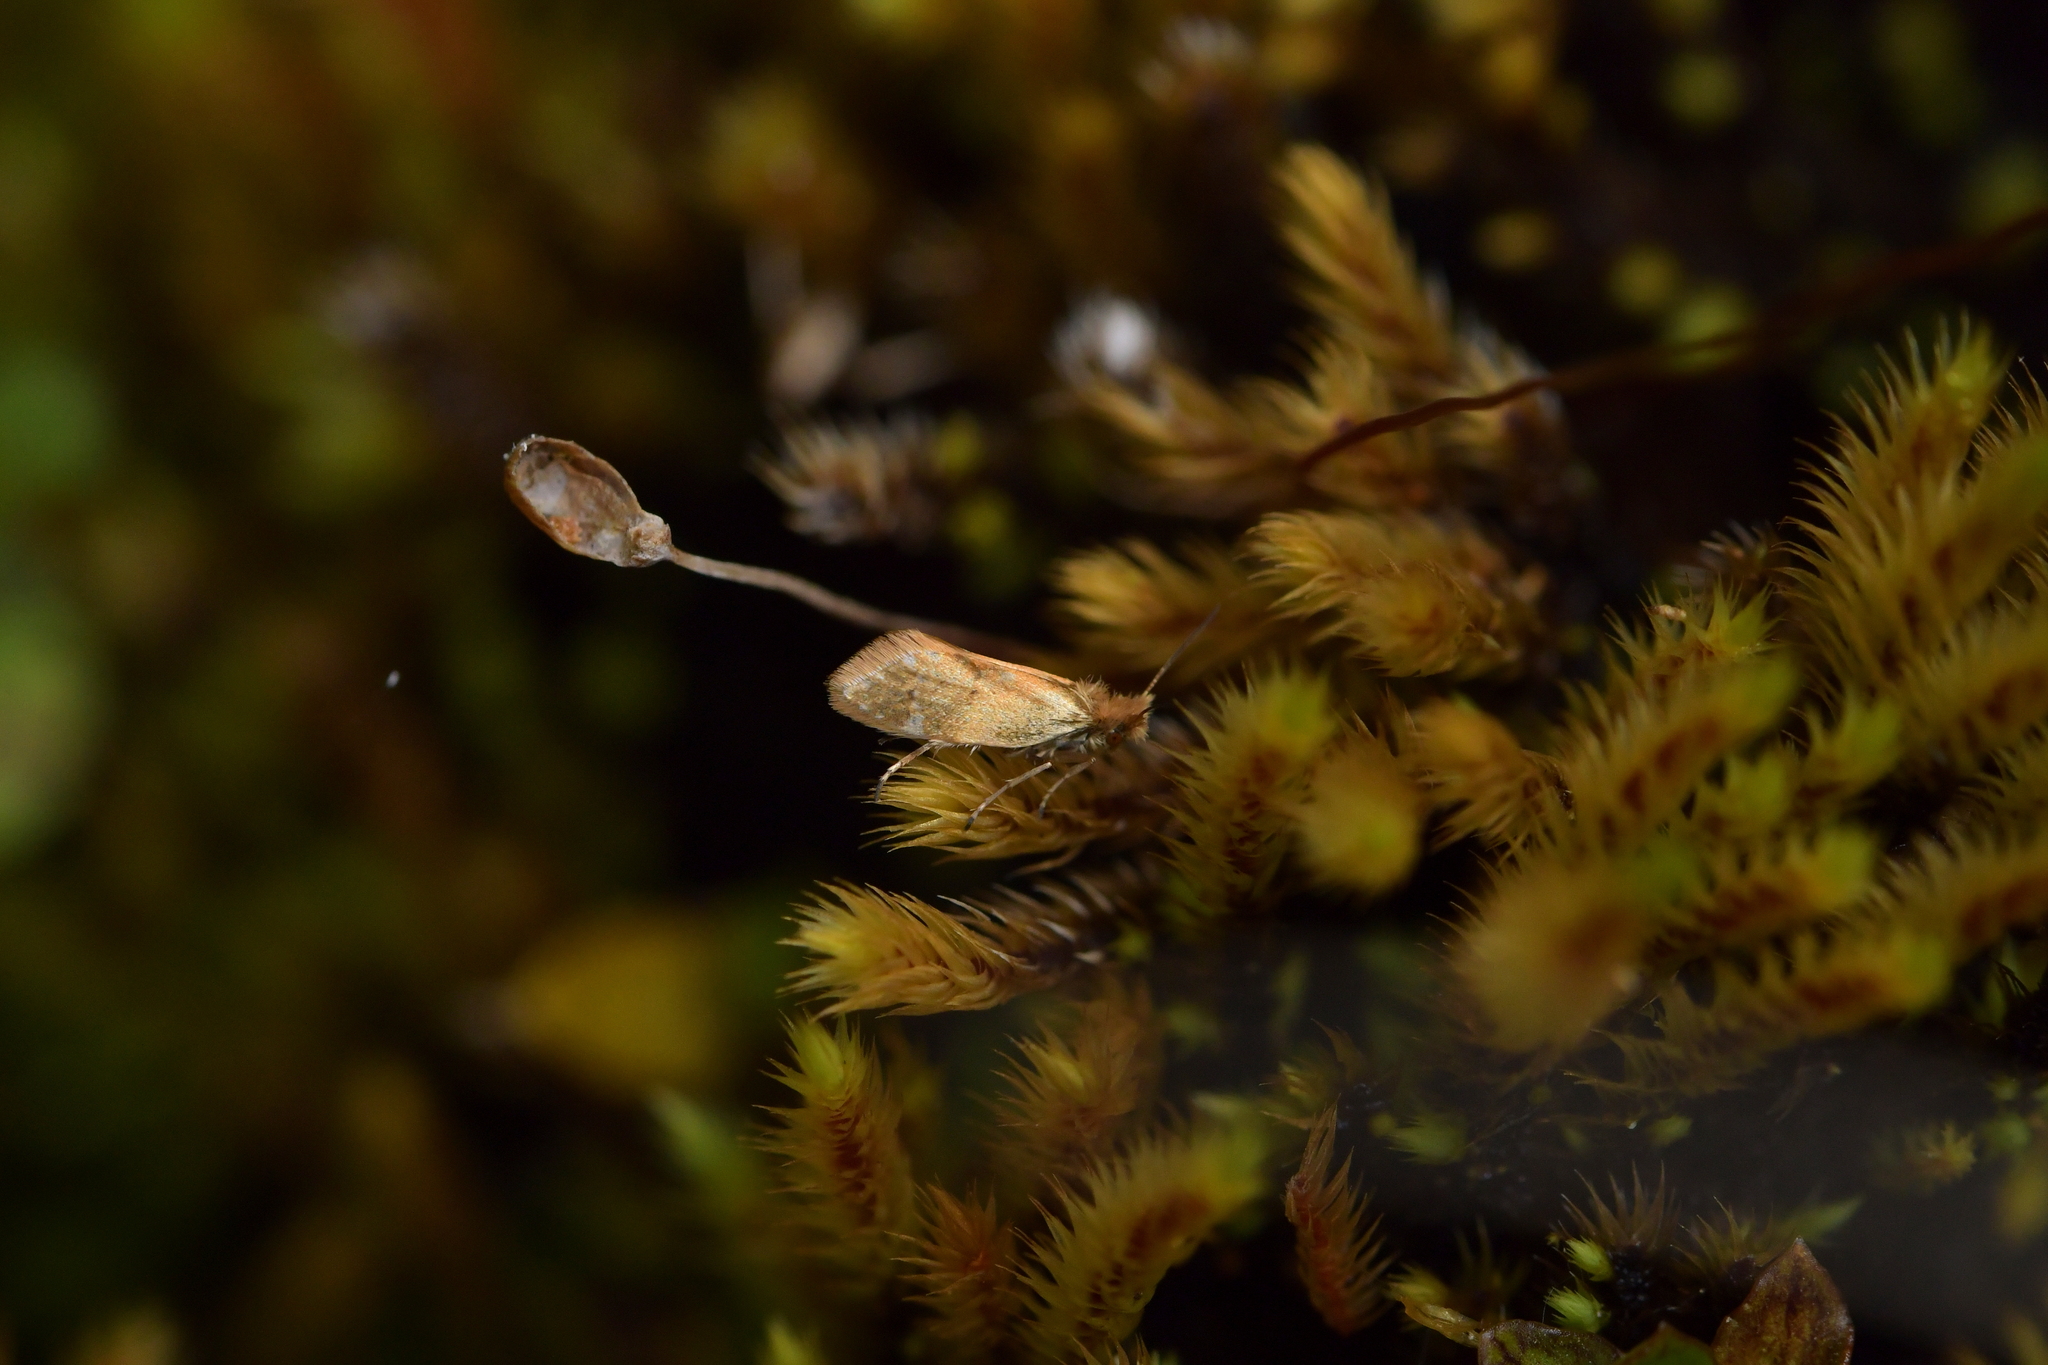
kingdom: Animalia
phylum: Arthropoda
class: Insecta
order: Lepidoptera
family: Micropterigidae
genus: Sabatinca
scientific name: Sabatinca aemula
